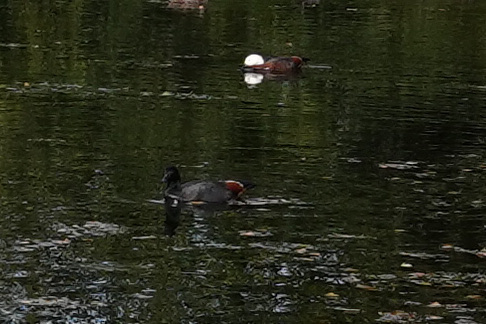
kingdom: Animalia
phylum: Chordata
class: Aves
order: Anseriformes
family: Anatidae
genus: Tadorna
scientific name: Tadorna variegata
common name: Paradise shelduck
